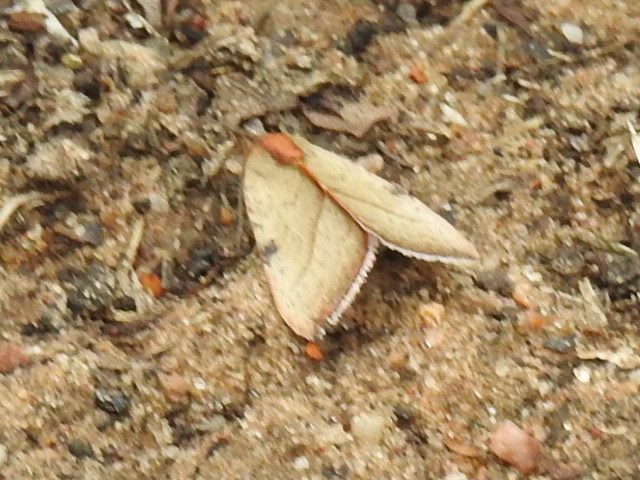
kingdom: Animalia
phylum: Arthropoda
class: Insecta
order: Lepidoptera
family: Noctuidae
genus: Galgula
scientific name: Galgula partita
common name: Wedgeling
